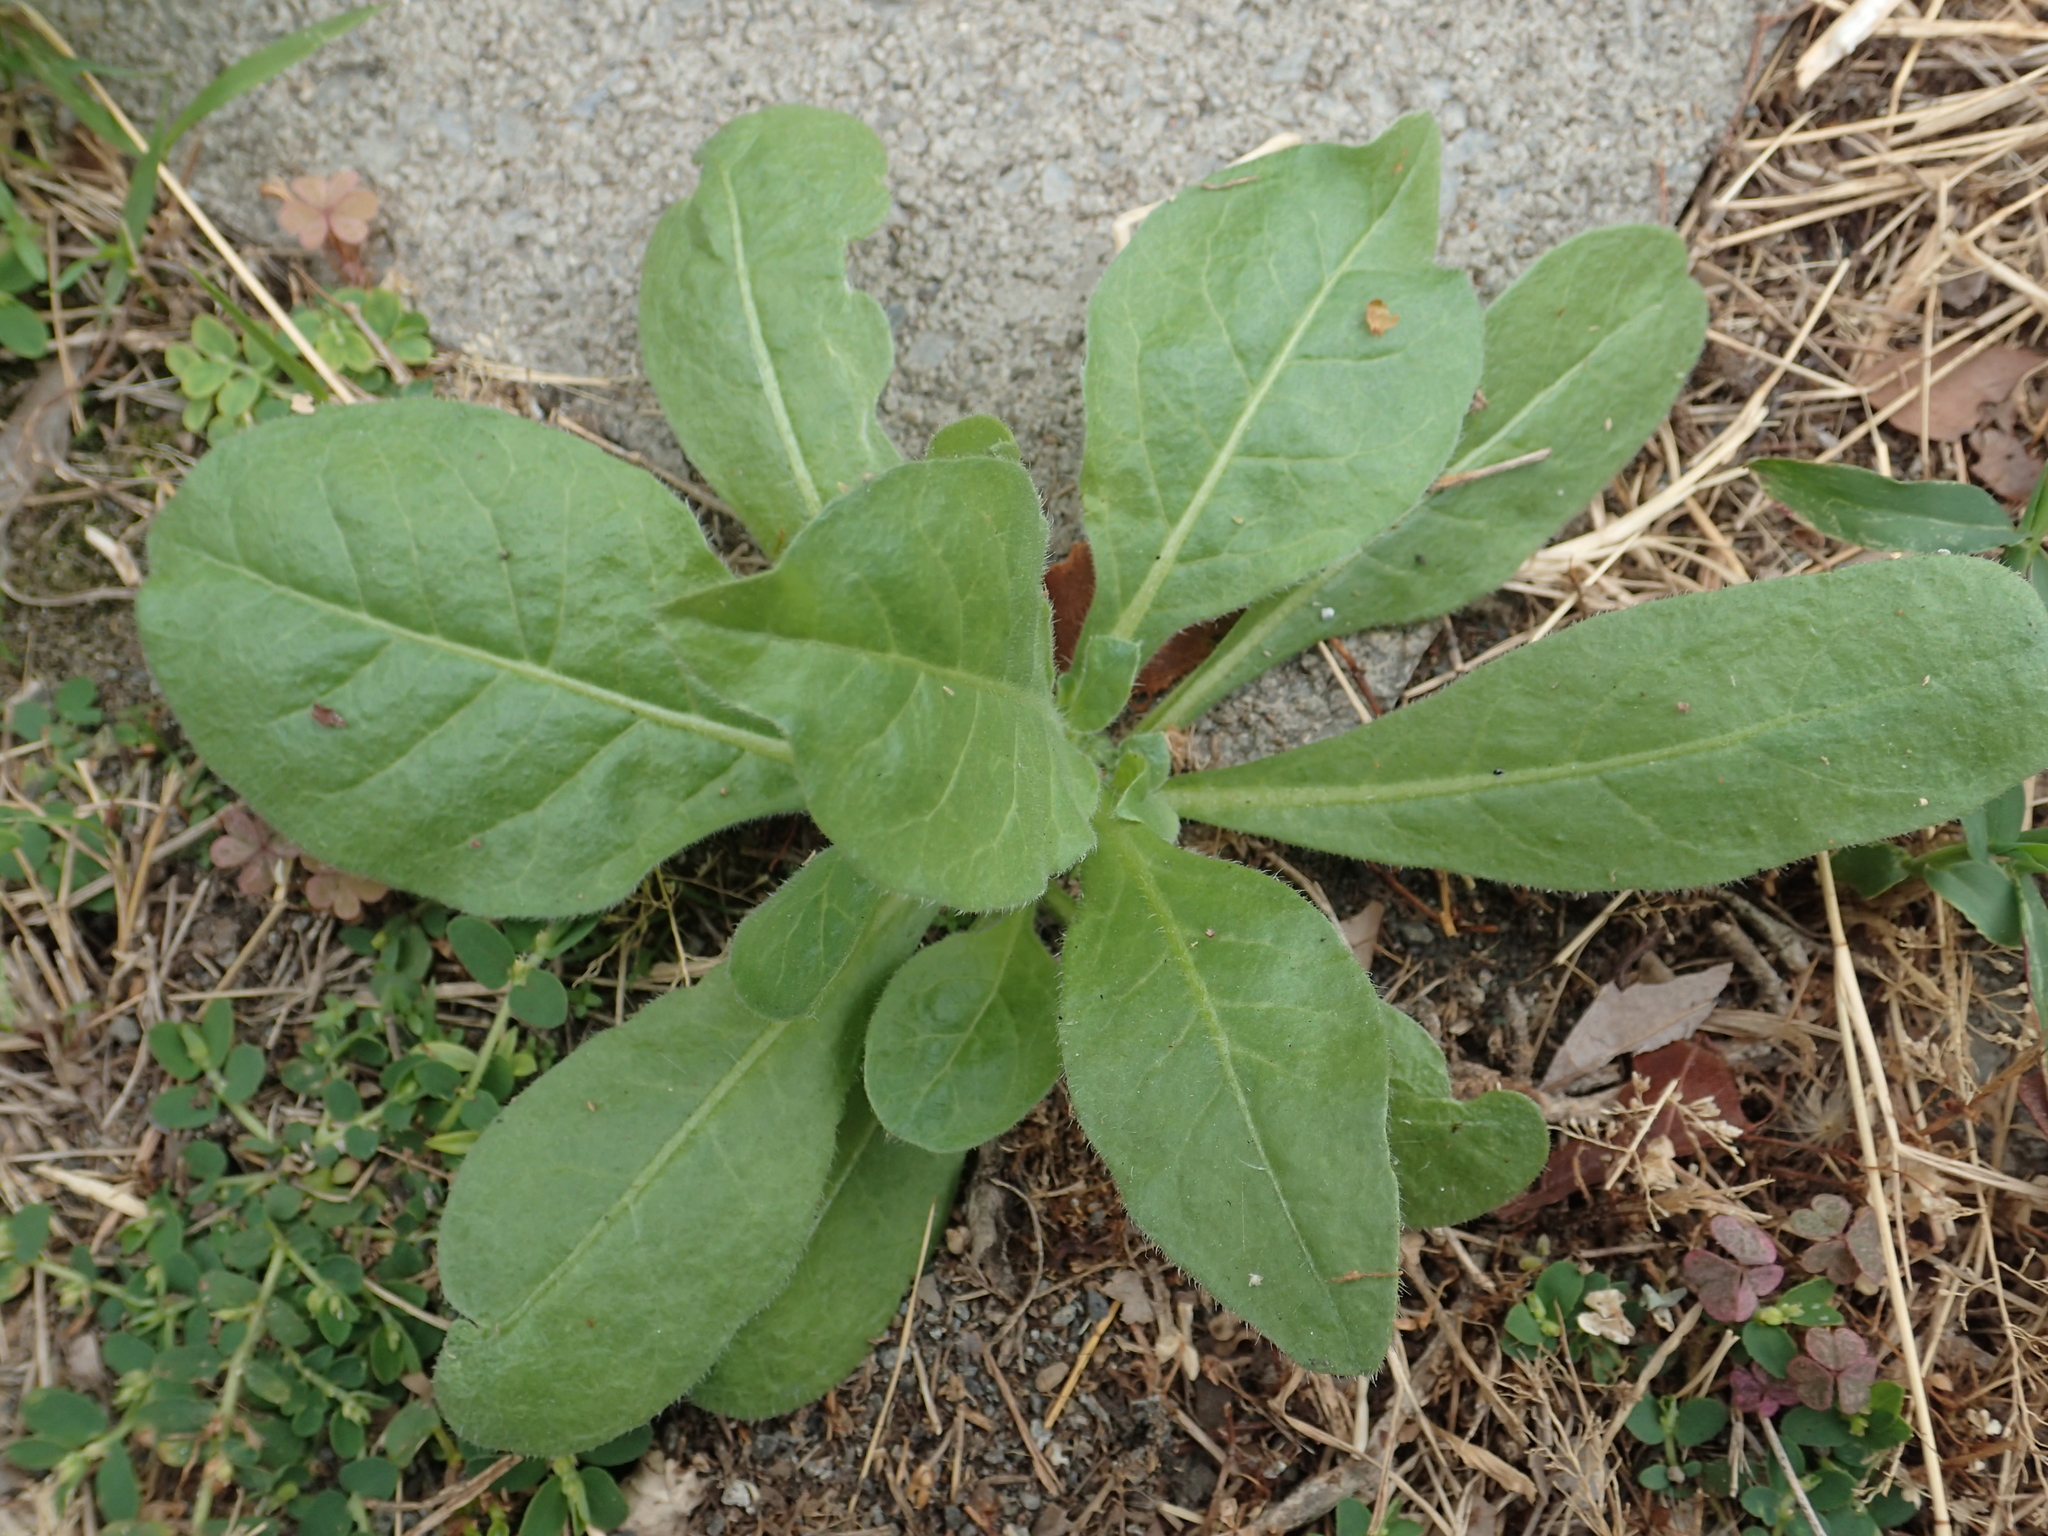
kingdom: Plantae
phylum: Tracheophyta
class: Magnoliopsida
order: Solanales
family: Solanaceae
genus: Nicotiana
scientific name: Nicotiana plumbaginifolia
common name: Tex-mex tobacco
